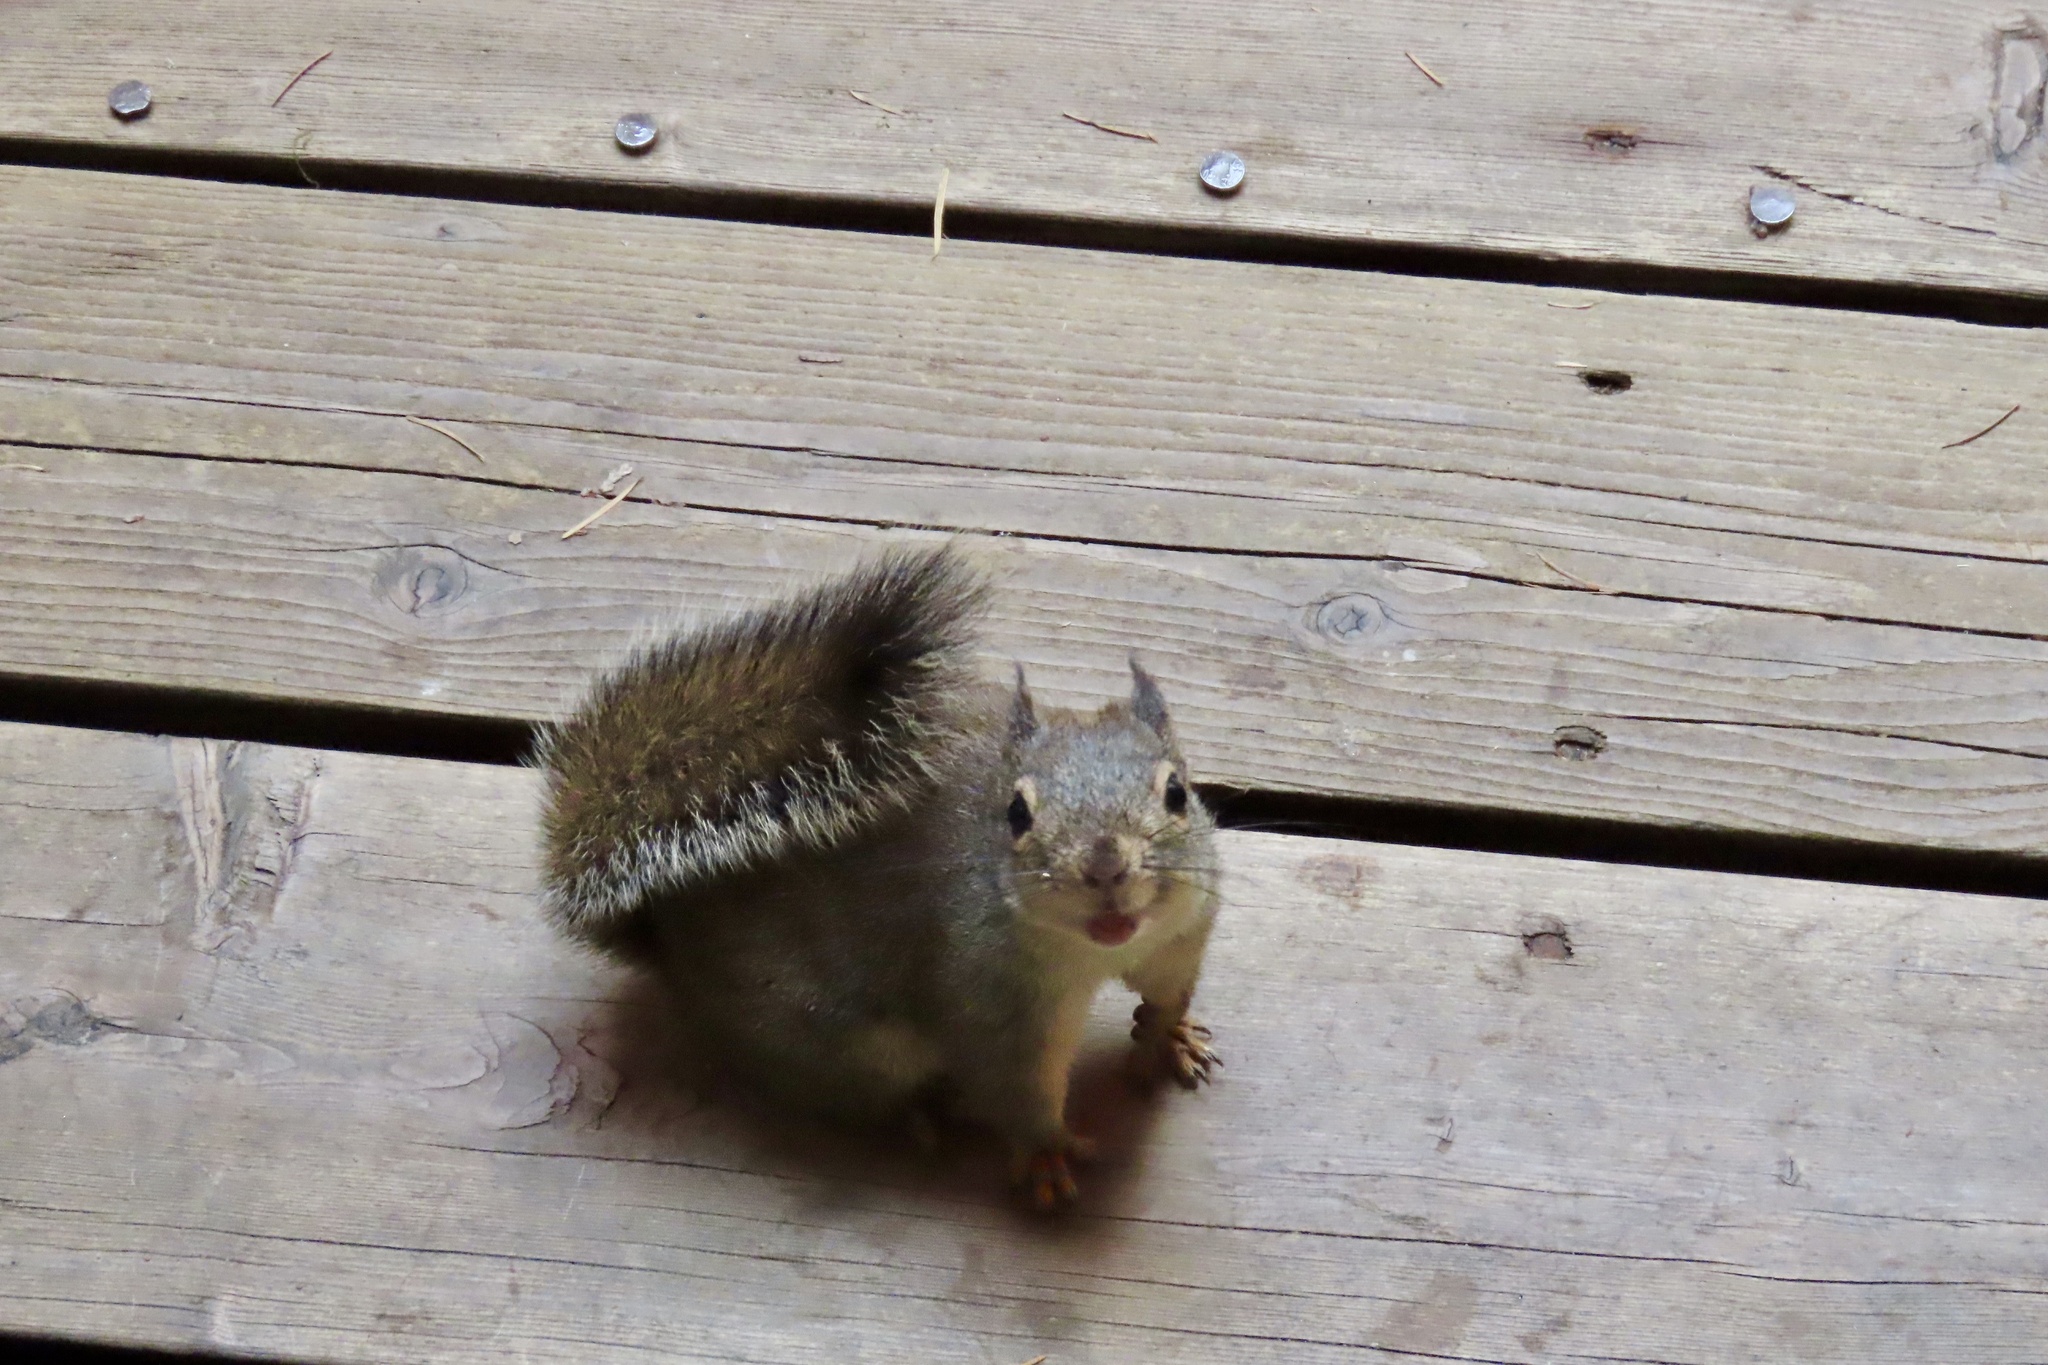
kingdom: Animalia
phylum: Chordata
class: Mammalia
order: Rodentia
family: Sciuridae
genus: Tamiasciurus
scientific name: Tamiasciurus douglasii
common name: Douglas's squirrel
